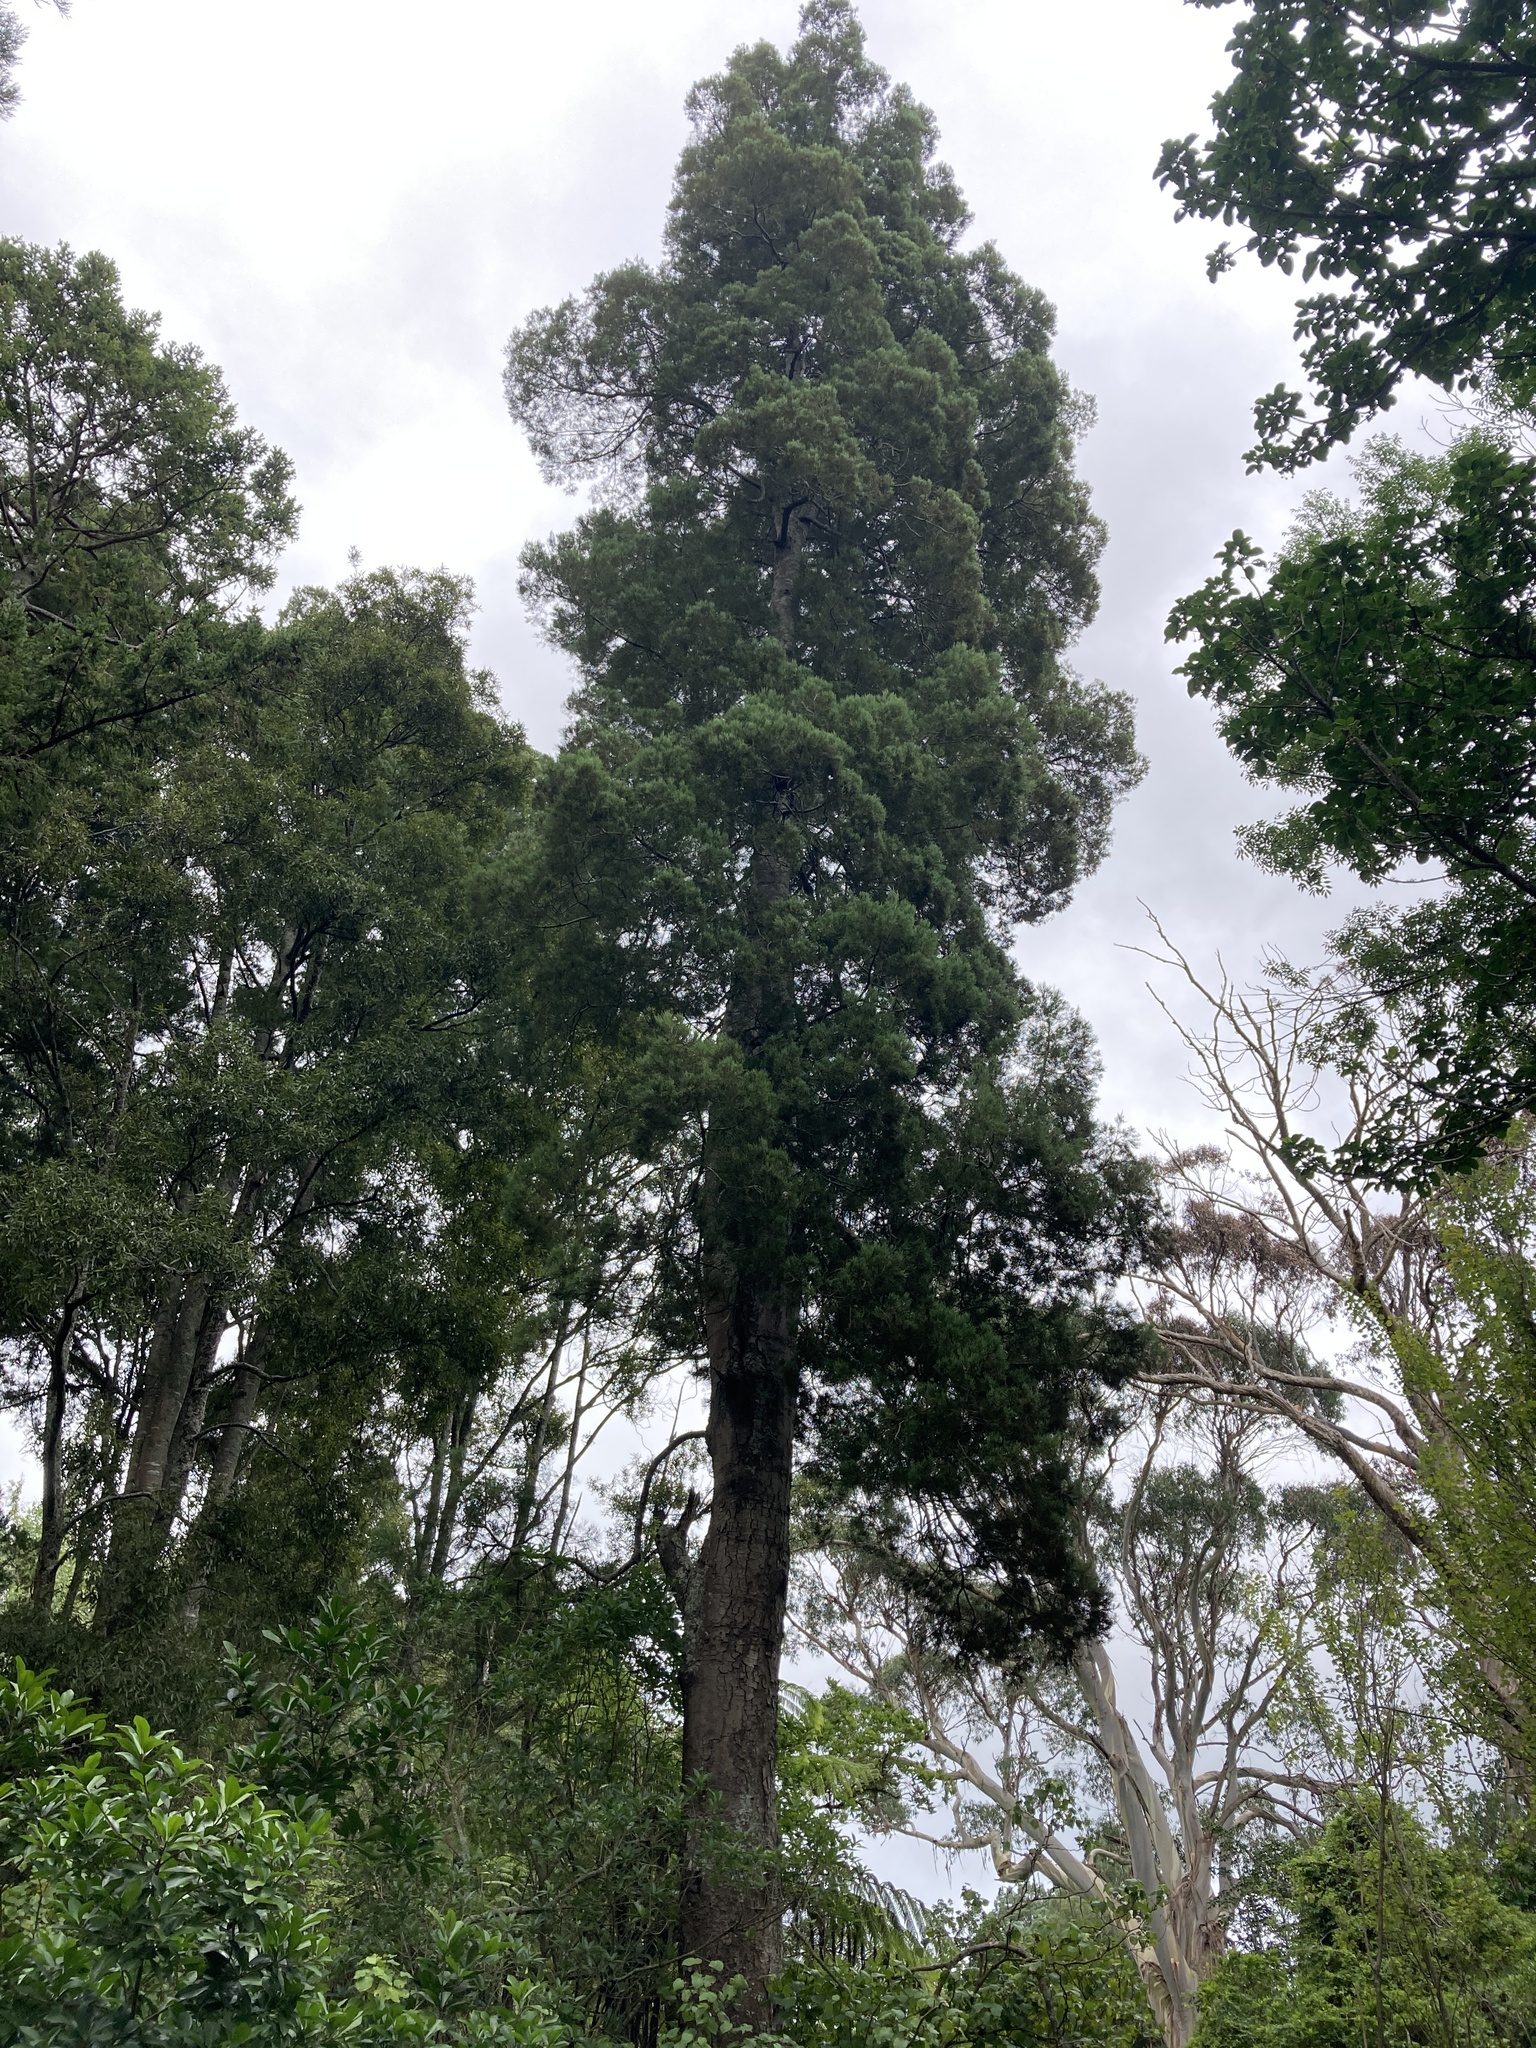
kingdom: Plantae
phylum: Tracheophyta
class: Pinopsida
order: Pinales
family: Podocarpaceae
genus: Dacrycarpus
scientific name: Dacrycarpus dacrydioides
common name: White pine
